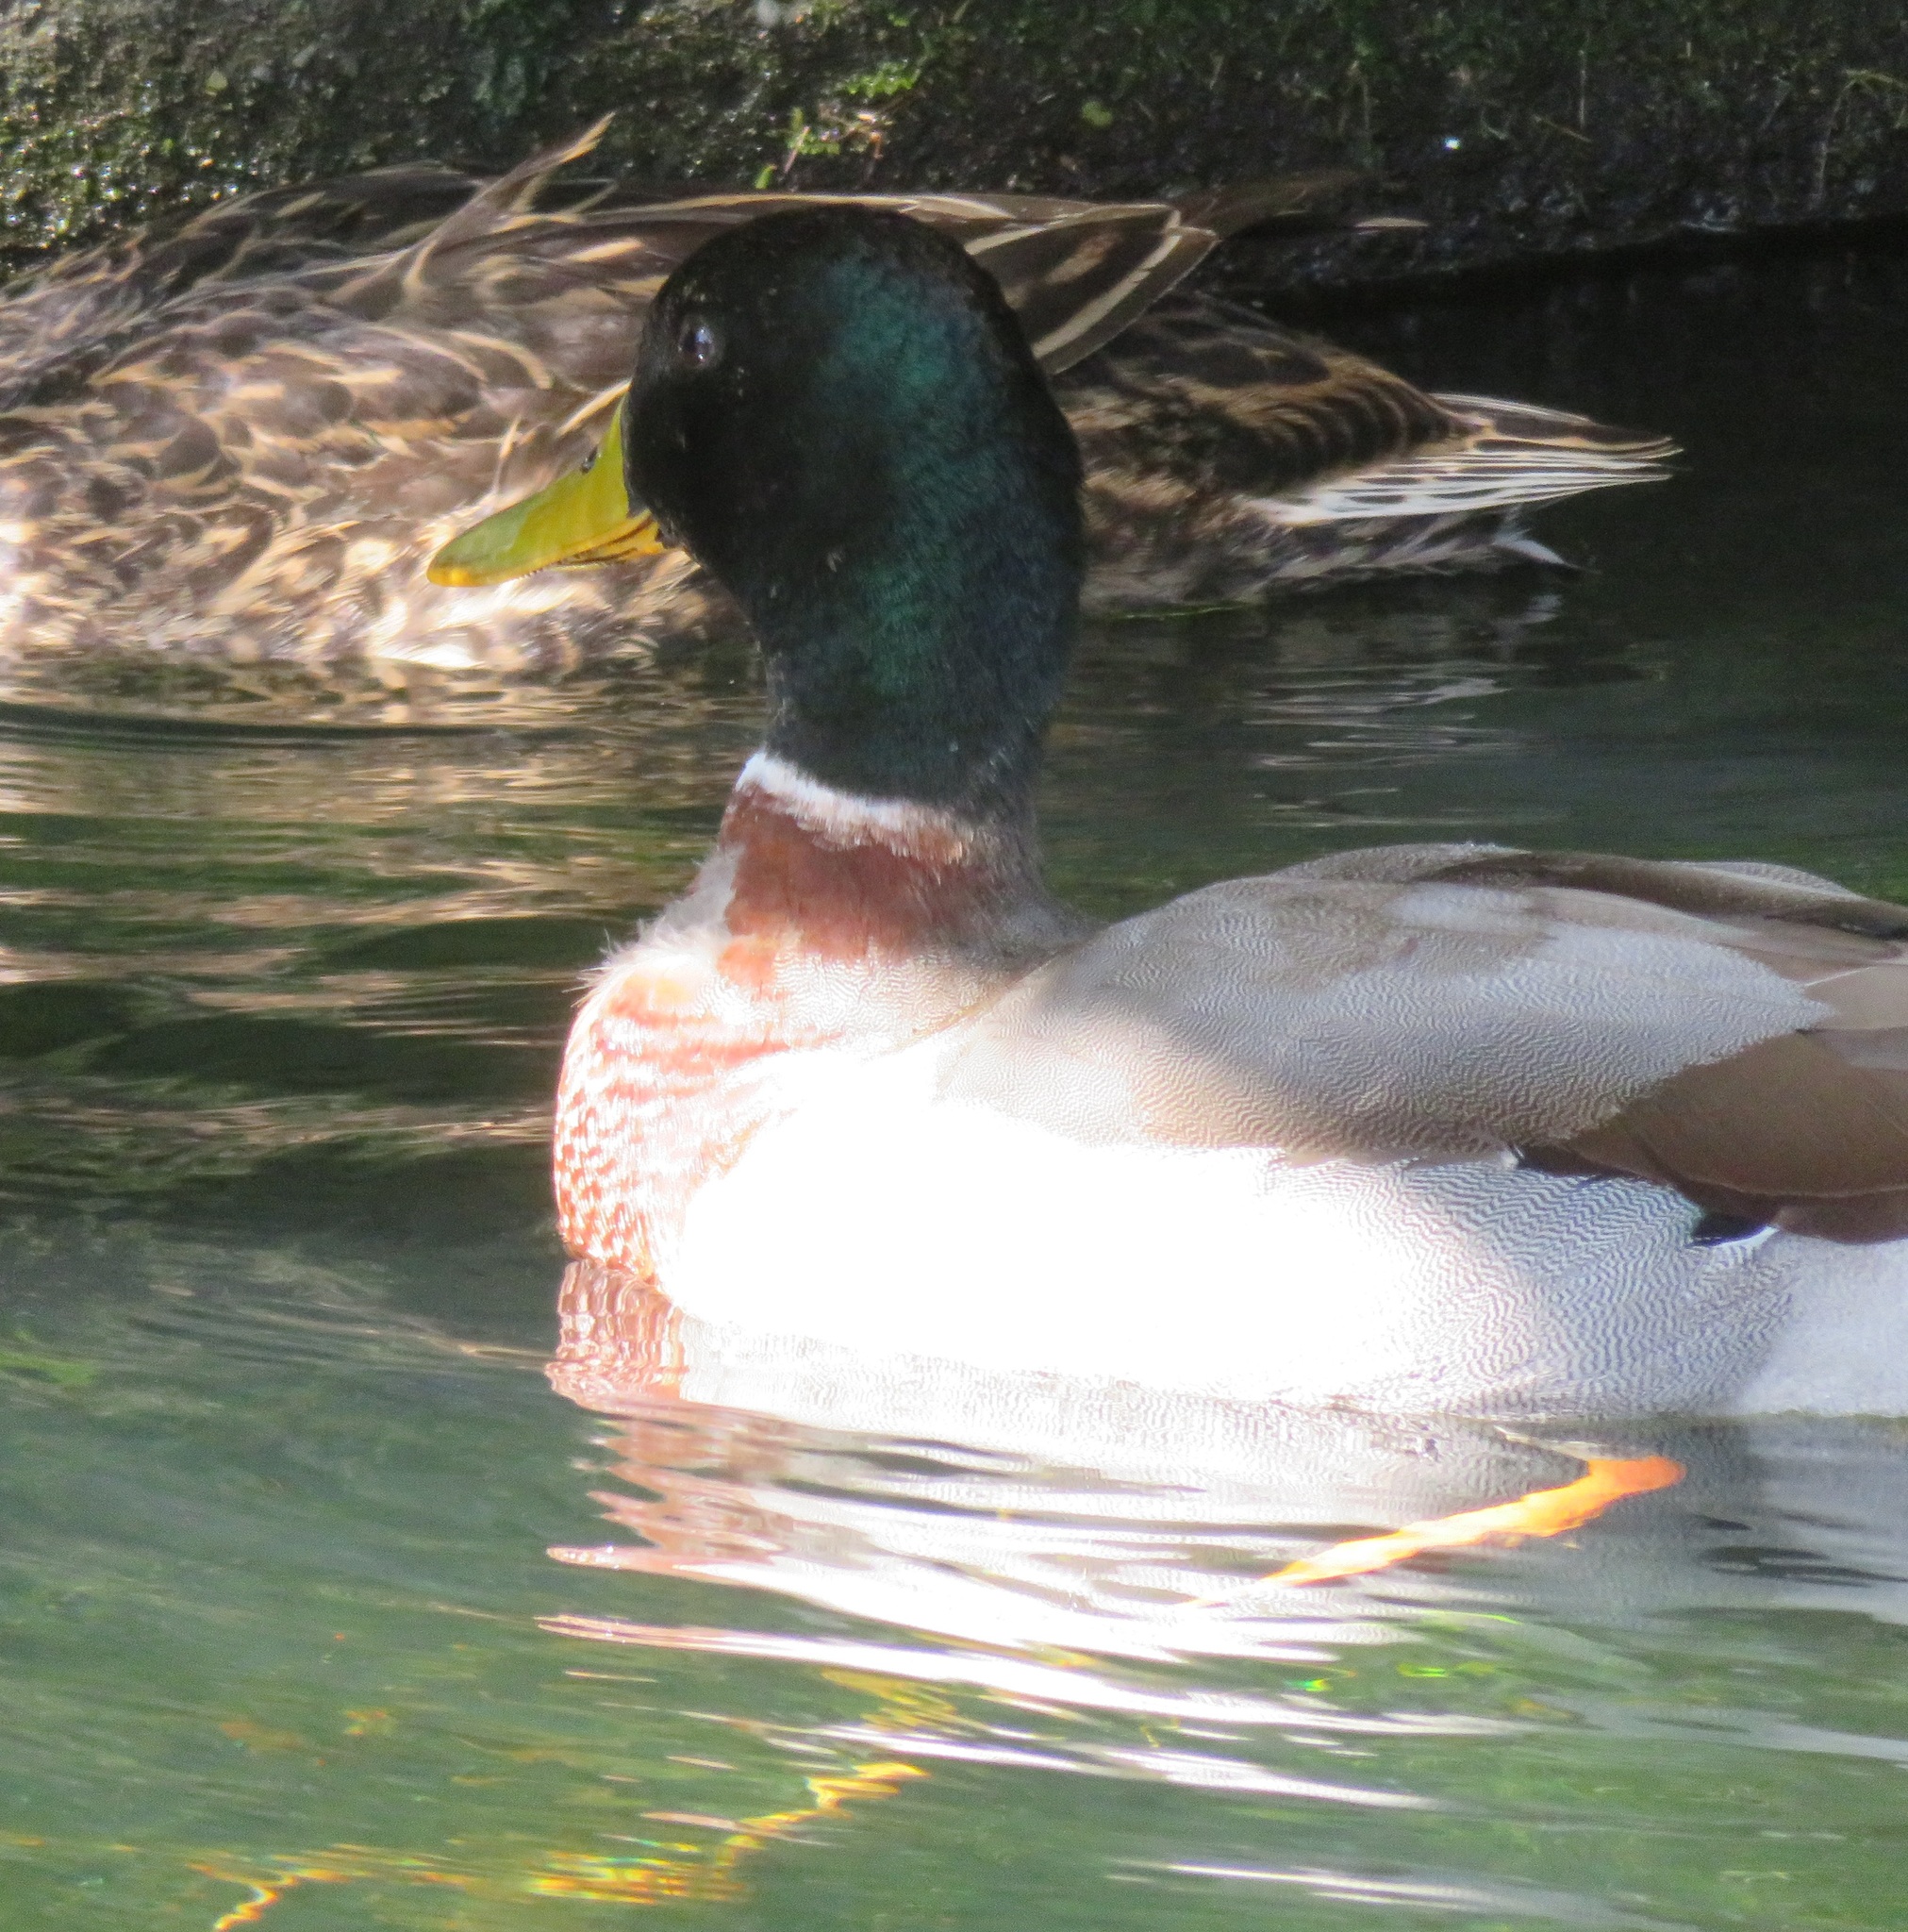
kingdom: Animalia
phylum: Chordata
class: Aves
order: Anseriformes
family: Anatidae
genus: Anas
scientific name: Anas platyrhynchos
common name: Mallard
